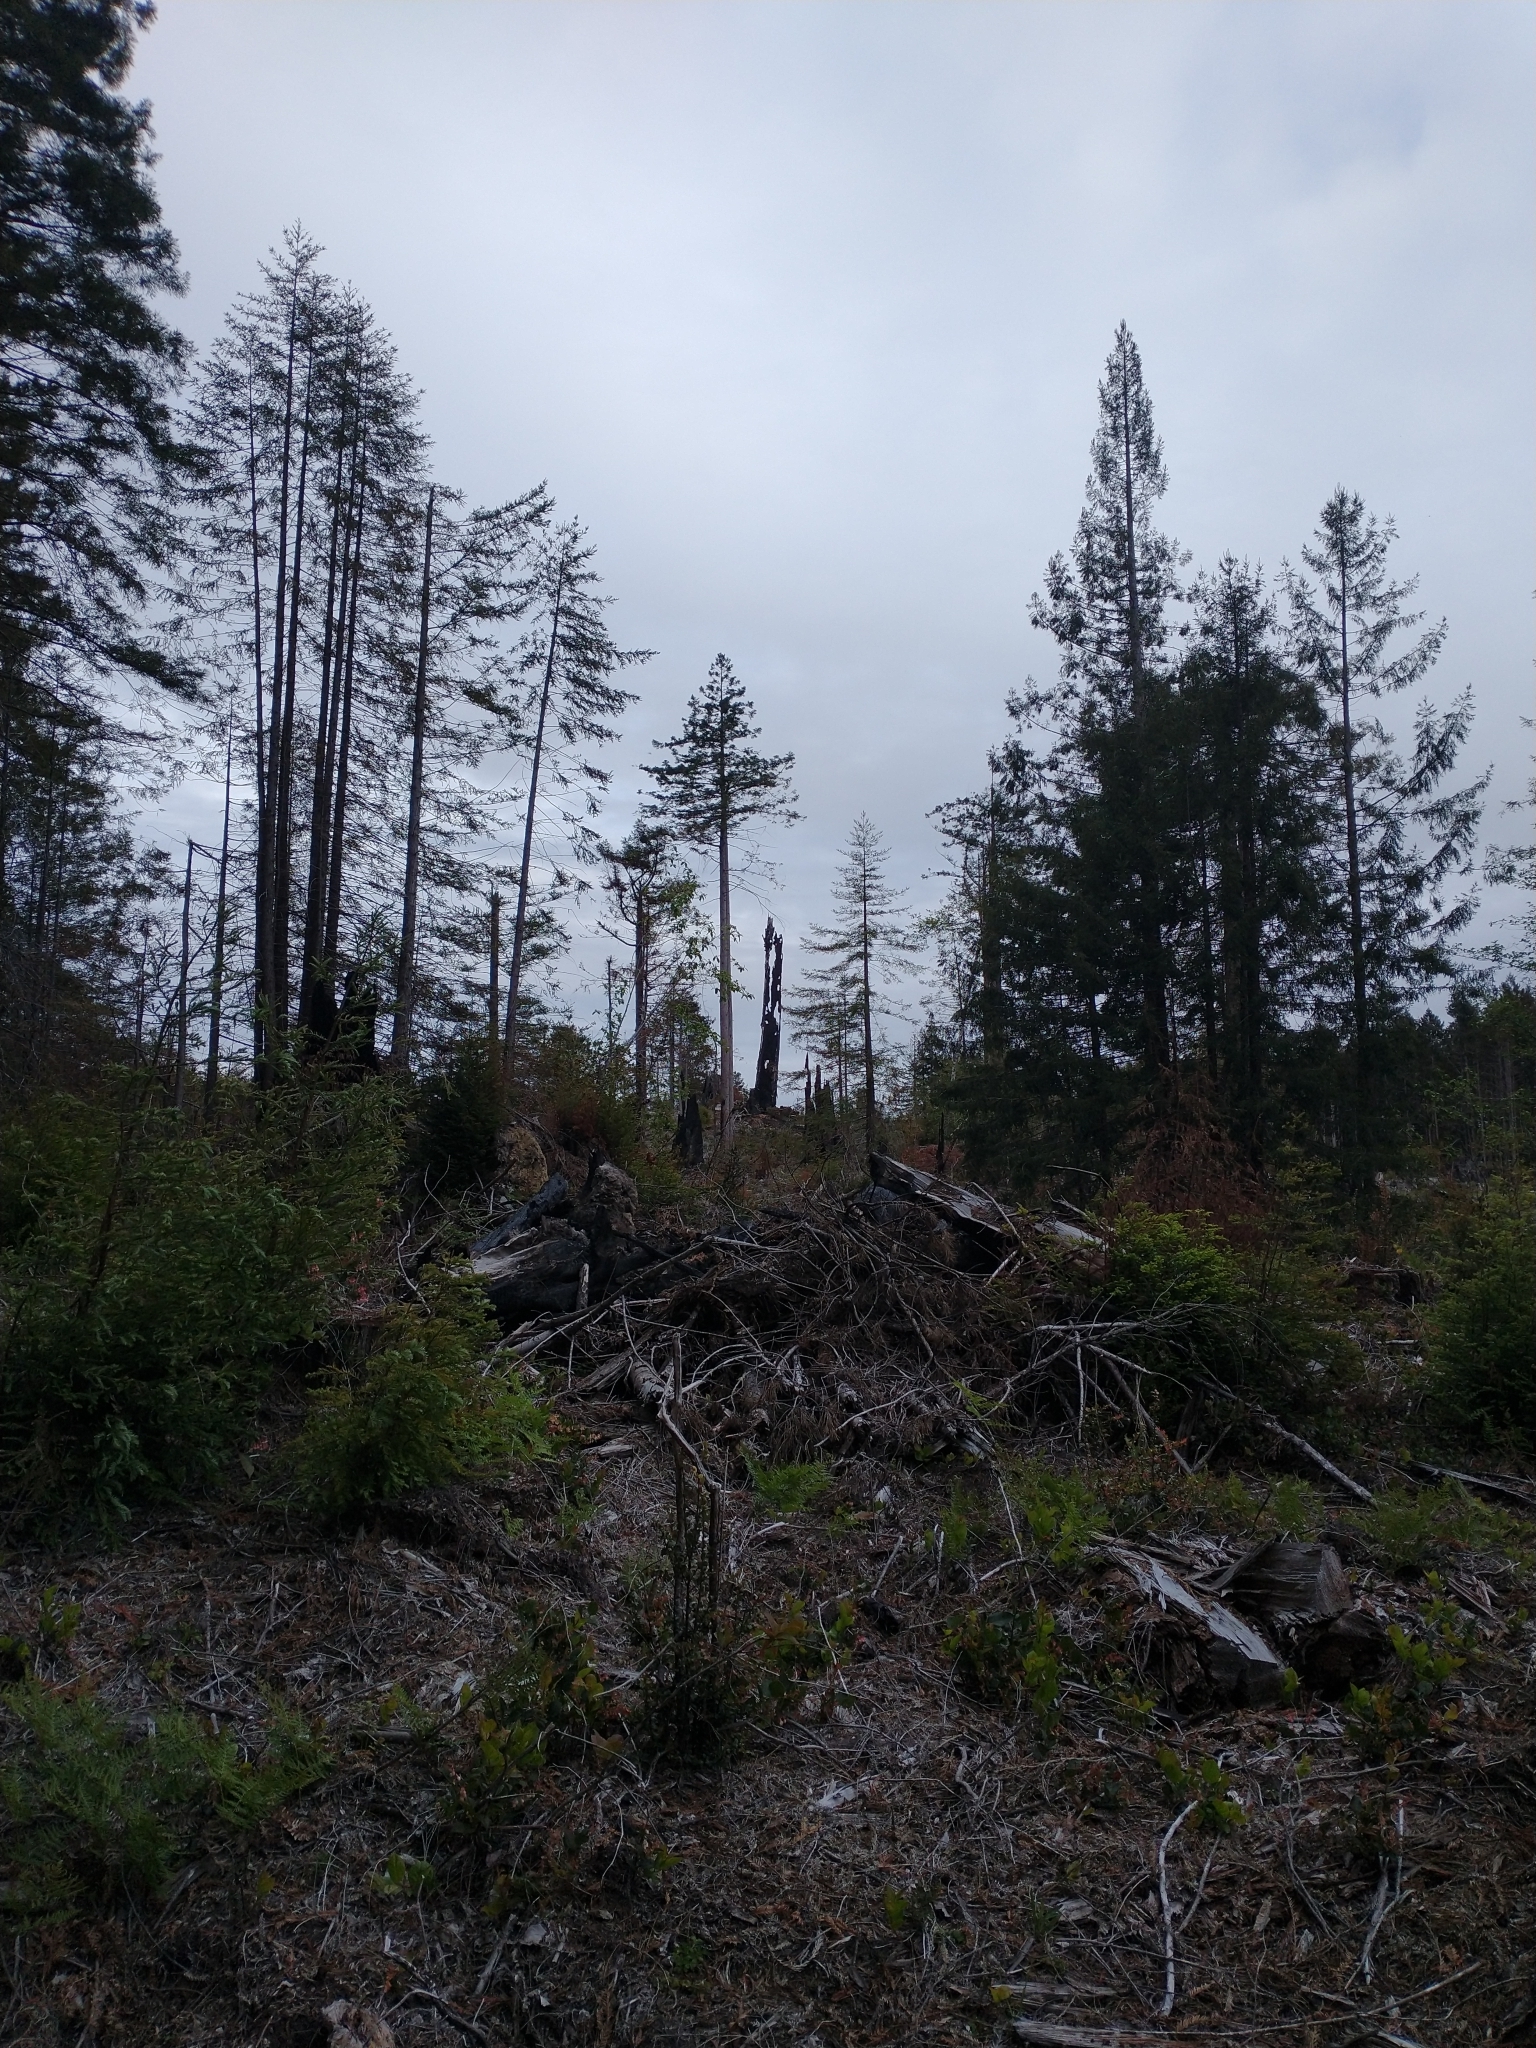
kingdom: Plantae
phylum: Tracheophyta
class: Pinopsida
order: Pinales
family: Cupressaceae
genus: Sequoia
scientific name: Sequoia sempervirens
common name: Coast redwood
